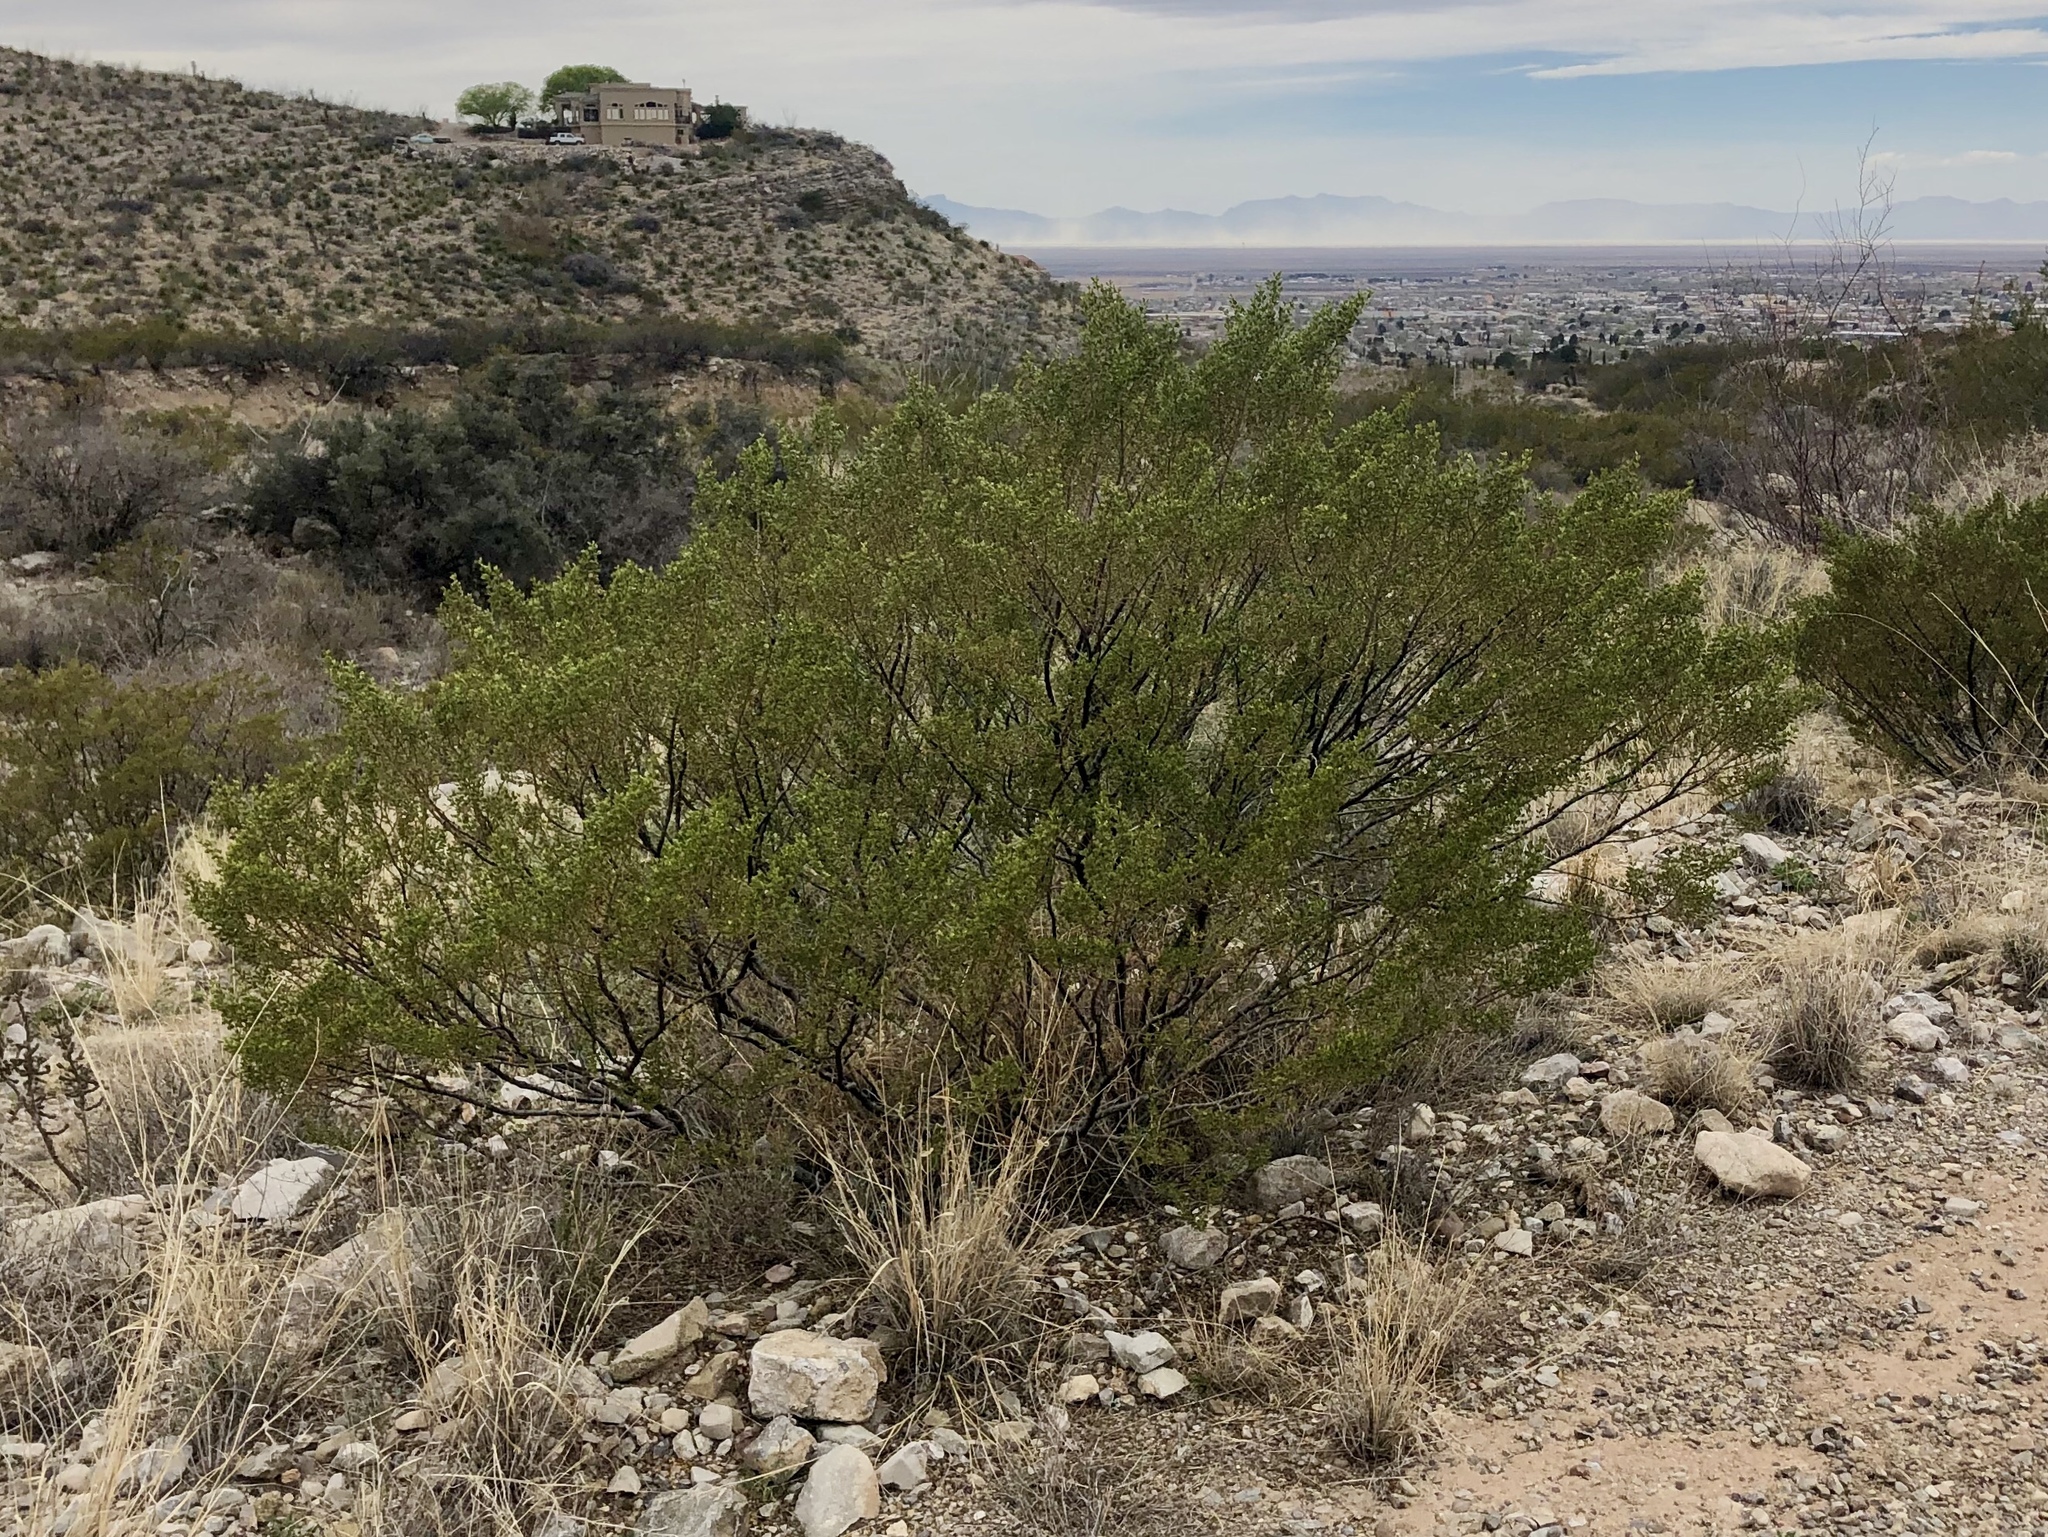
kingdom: Plantae
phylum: Tracheophyta
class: Magnoliopsida
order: Zygophyllales
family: Zygophyllaceae
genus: Larrea
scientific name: Larrea tridentata
